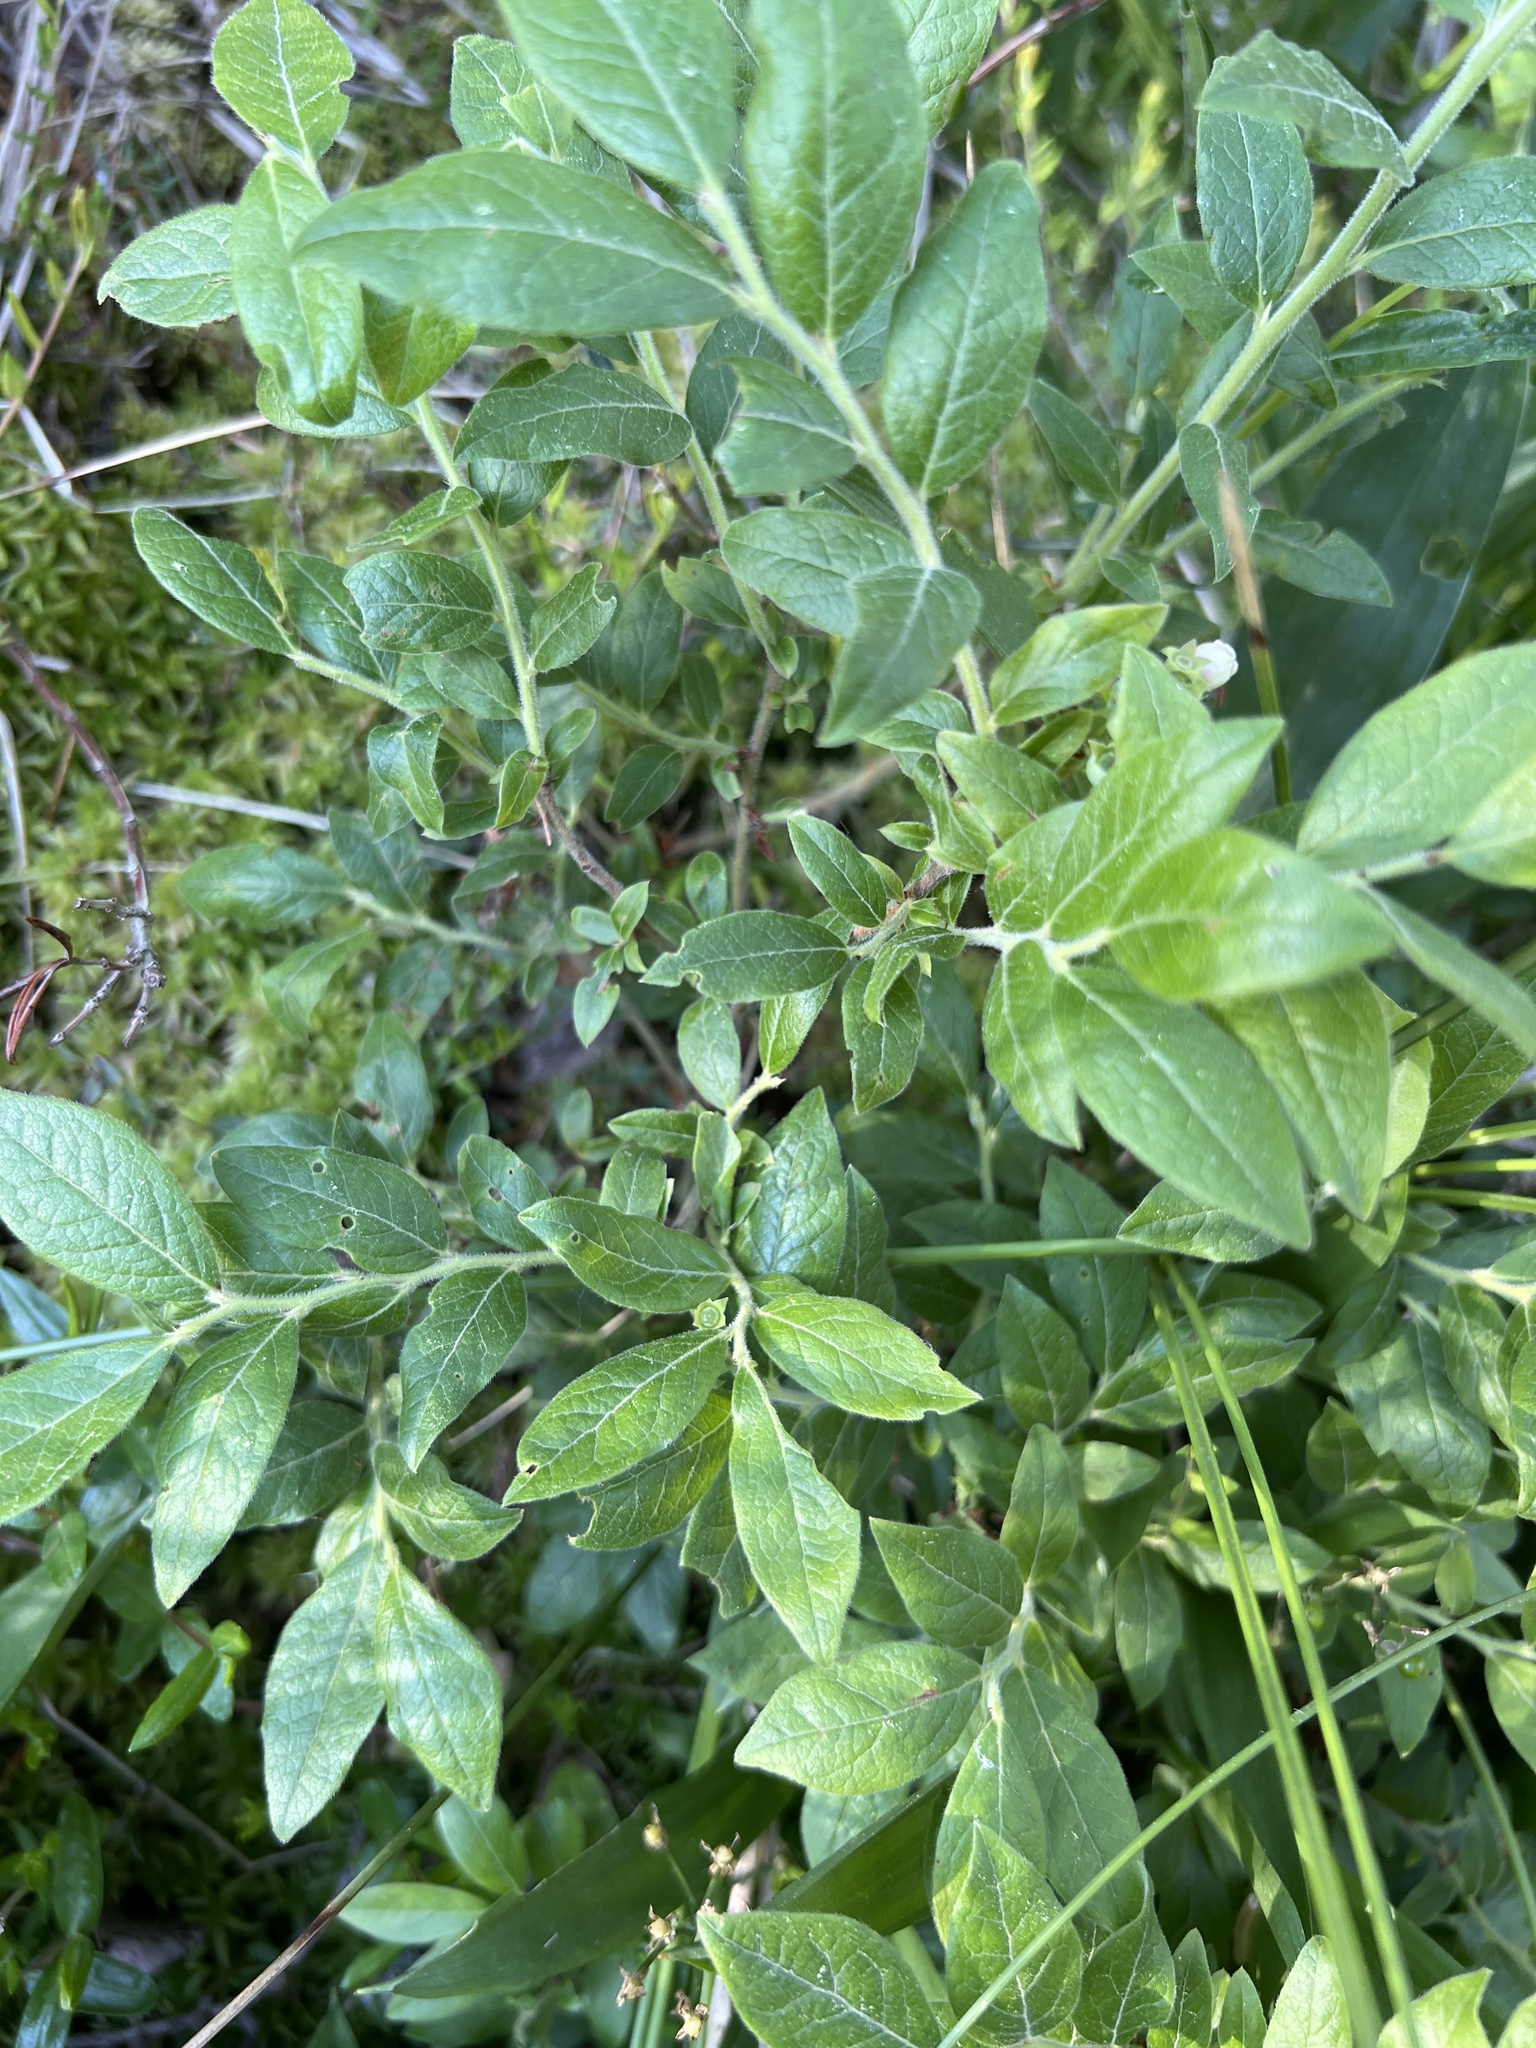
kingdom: Plantae
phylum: Tracheophyta
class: Magnoliopsida
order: Ericales
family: Ericaceae
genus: Vaccinium
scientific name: Vaccinium myrtilloides
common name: Canada blueberry
